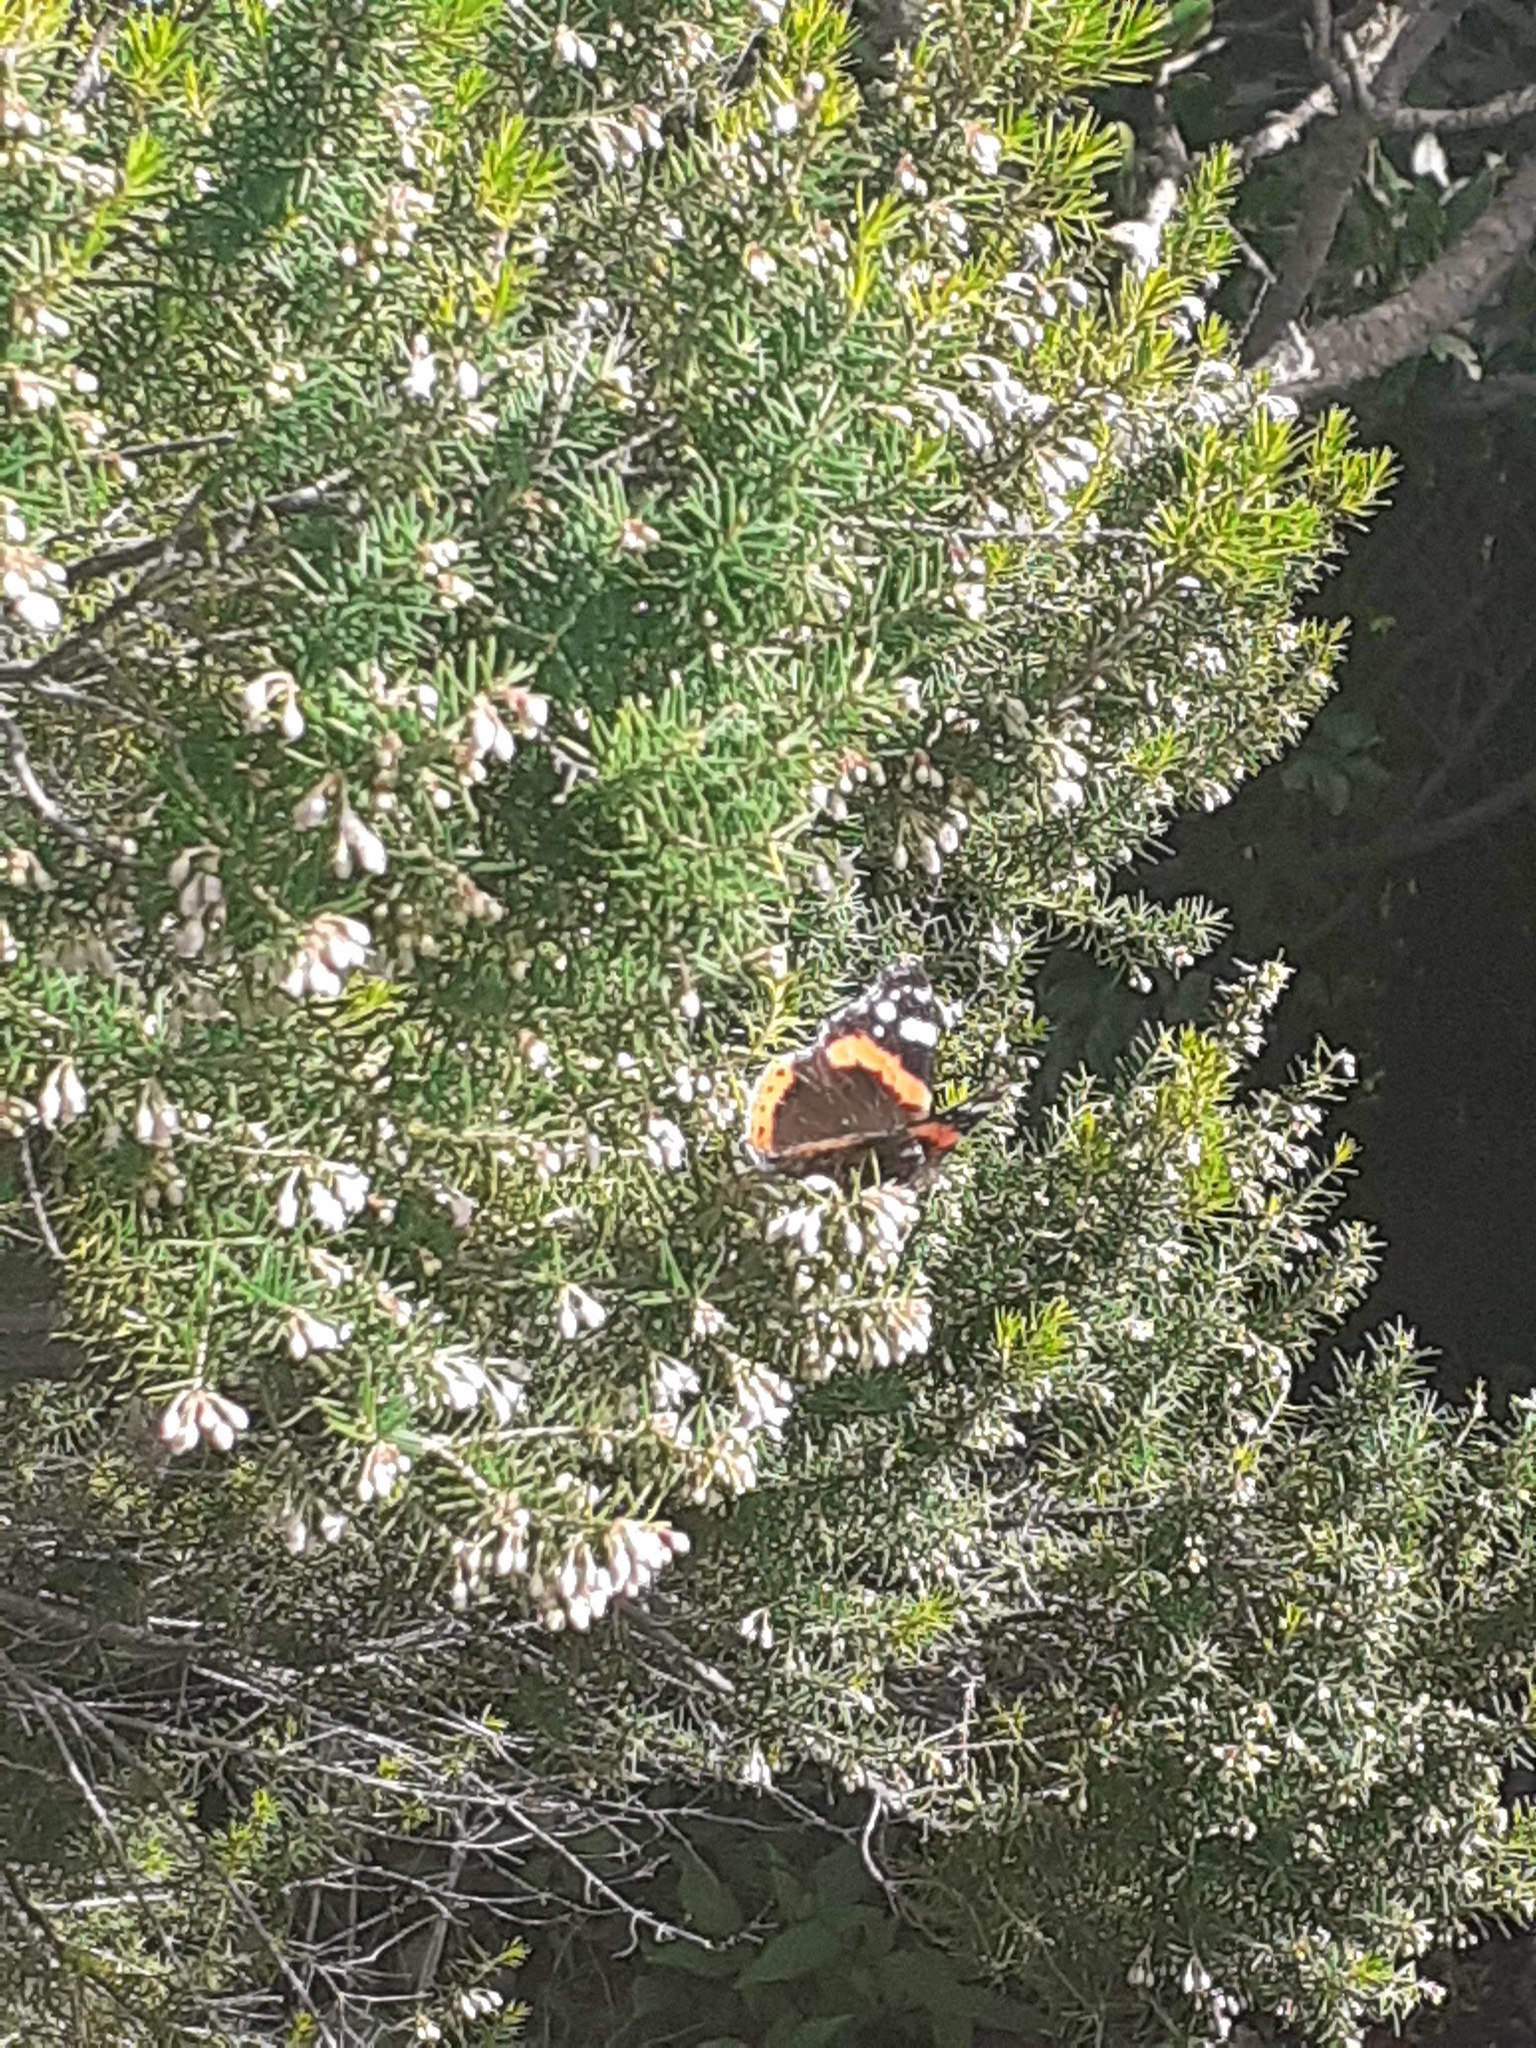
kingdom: Animalia
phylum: Arthropoda
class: Insecta
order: Lepidoptera
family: Nymphalidae
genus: Vanessa
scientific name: Vanessa atalanta
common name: Red admiral
